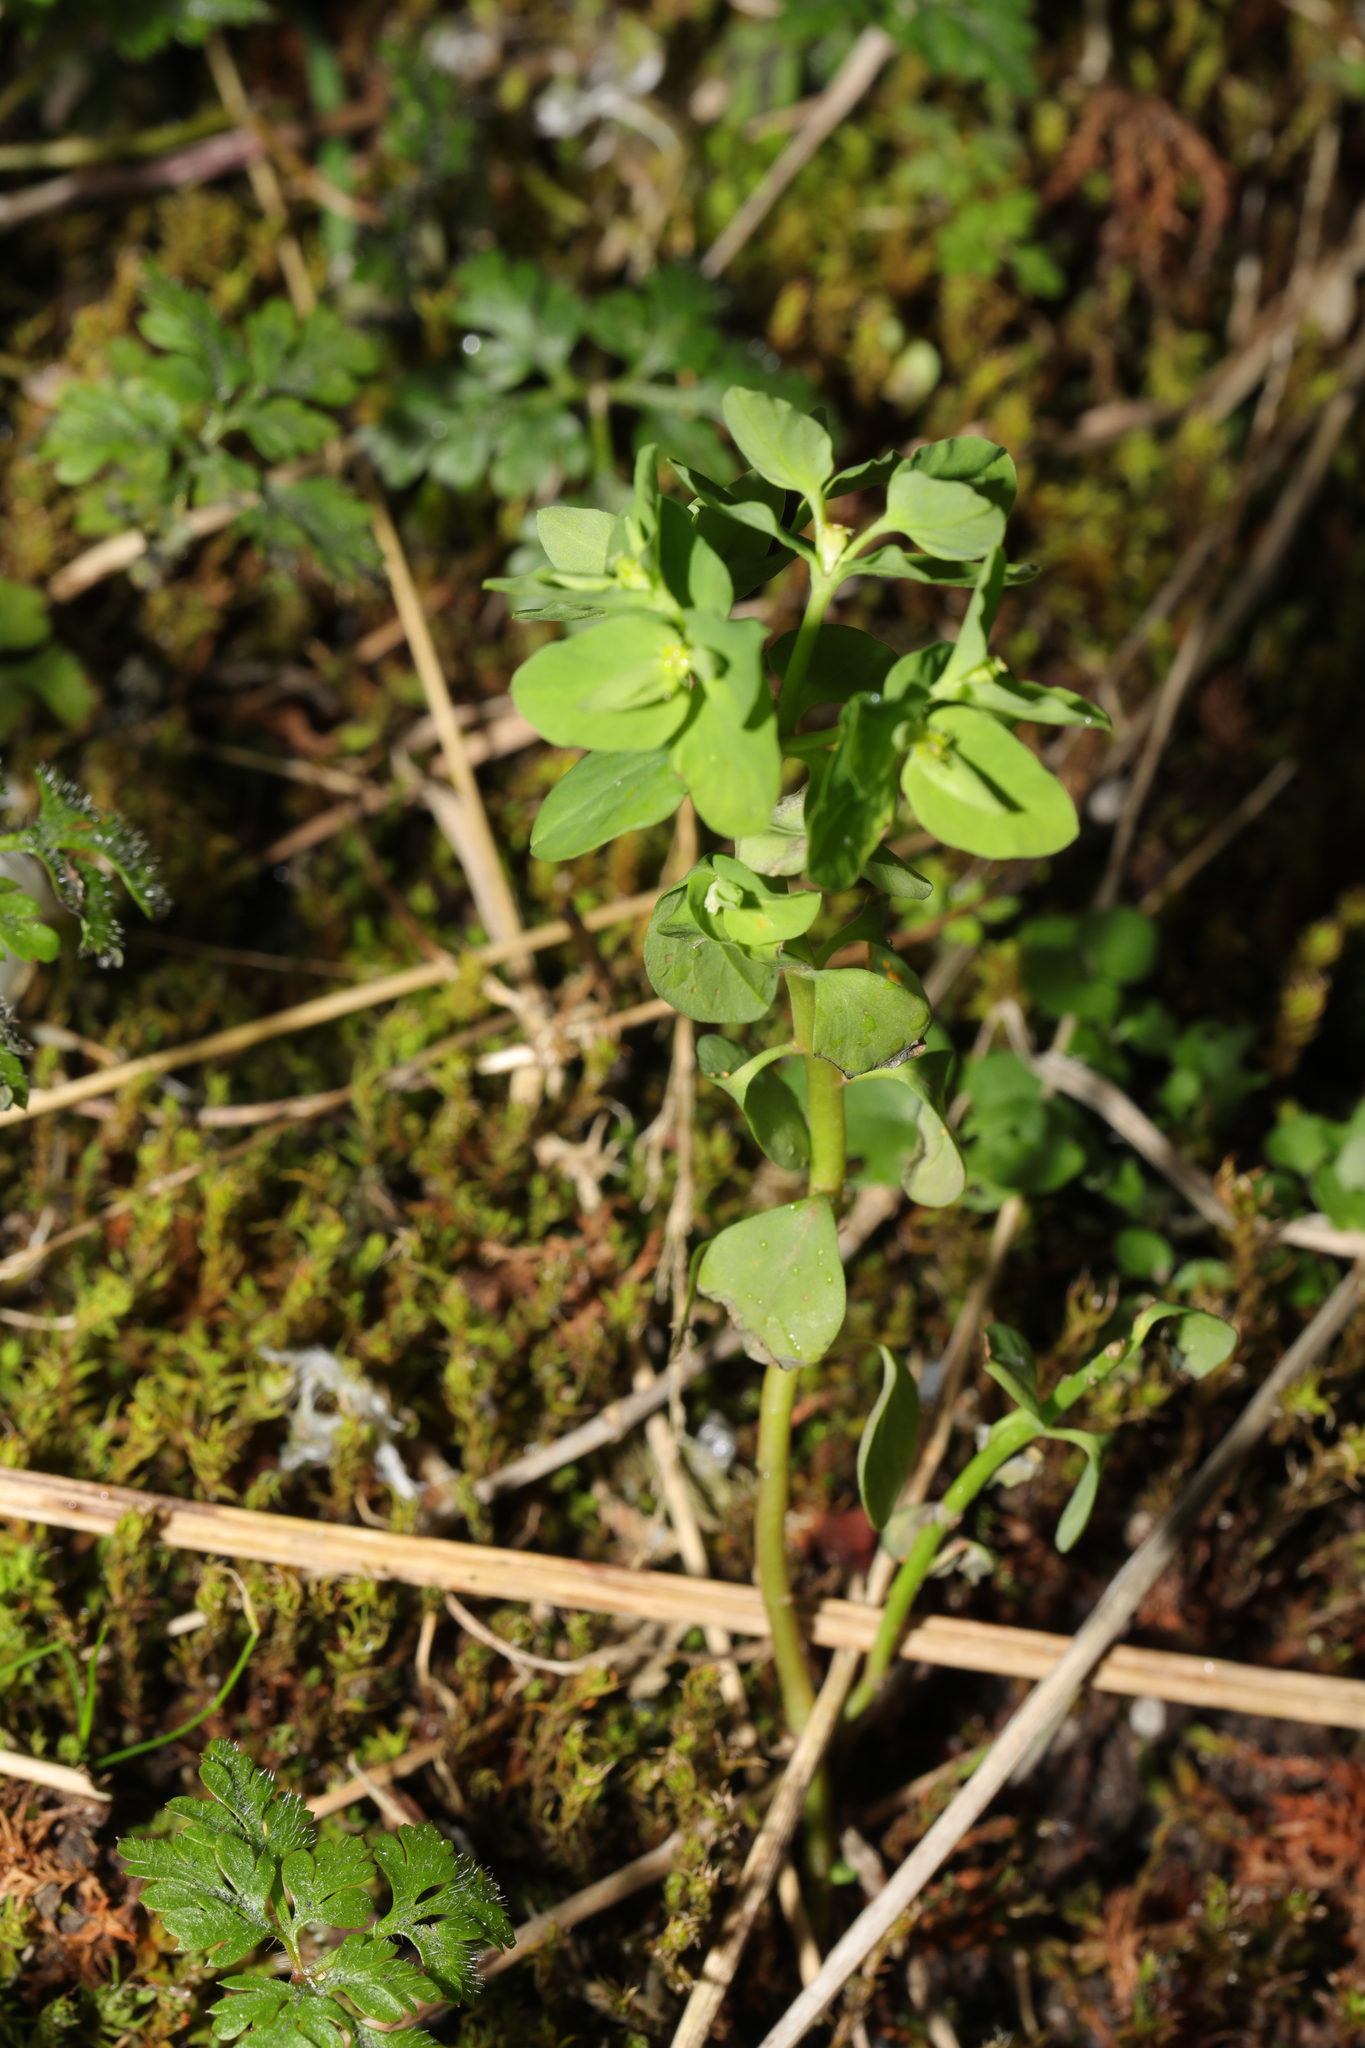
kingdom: Plantae
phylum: Tracheophyta
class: Magnoliopsida
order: Malpighiales
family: Euphorbiaceae
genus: Euphorbia
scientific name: Euphorbia peplus
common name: Petty spurge
